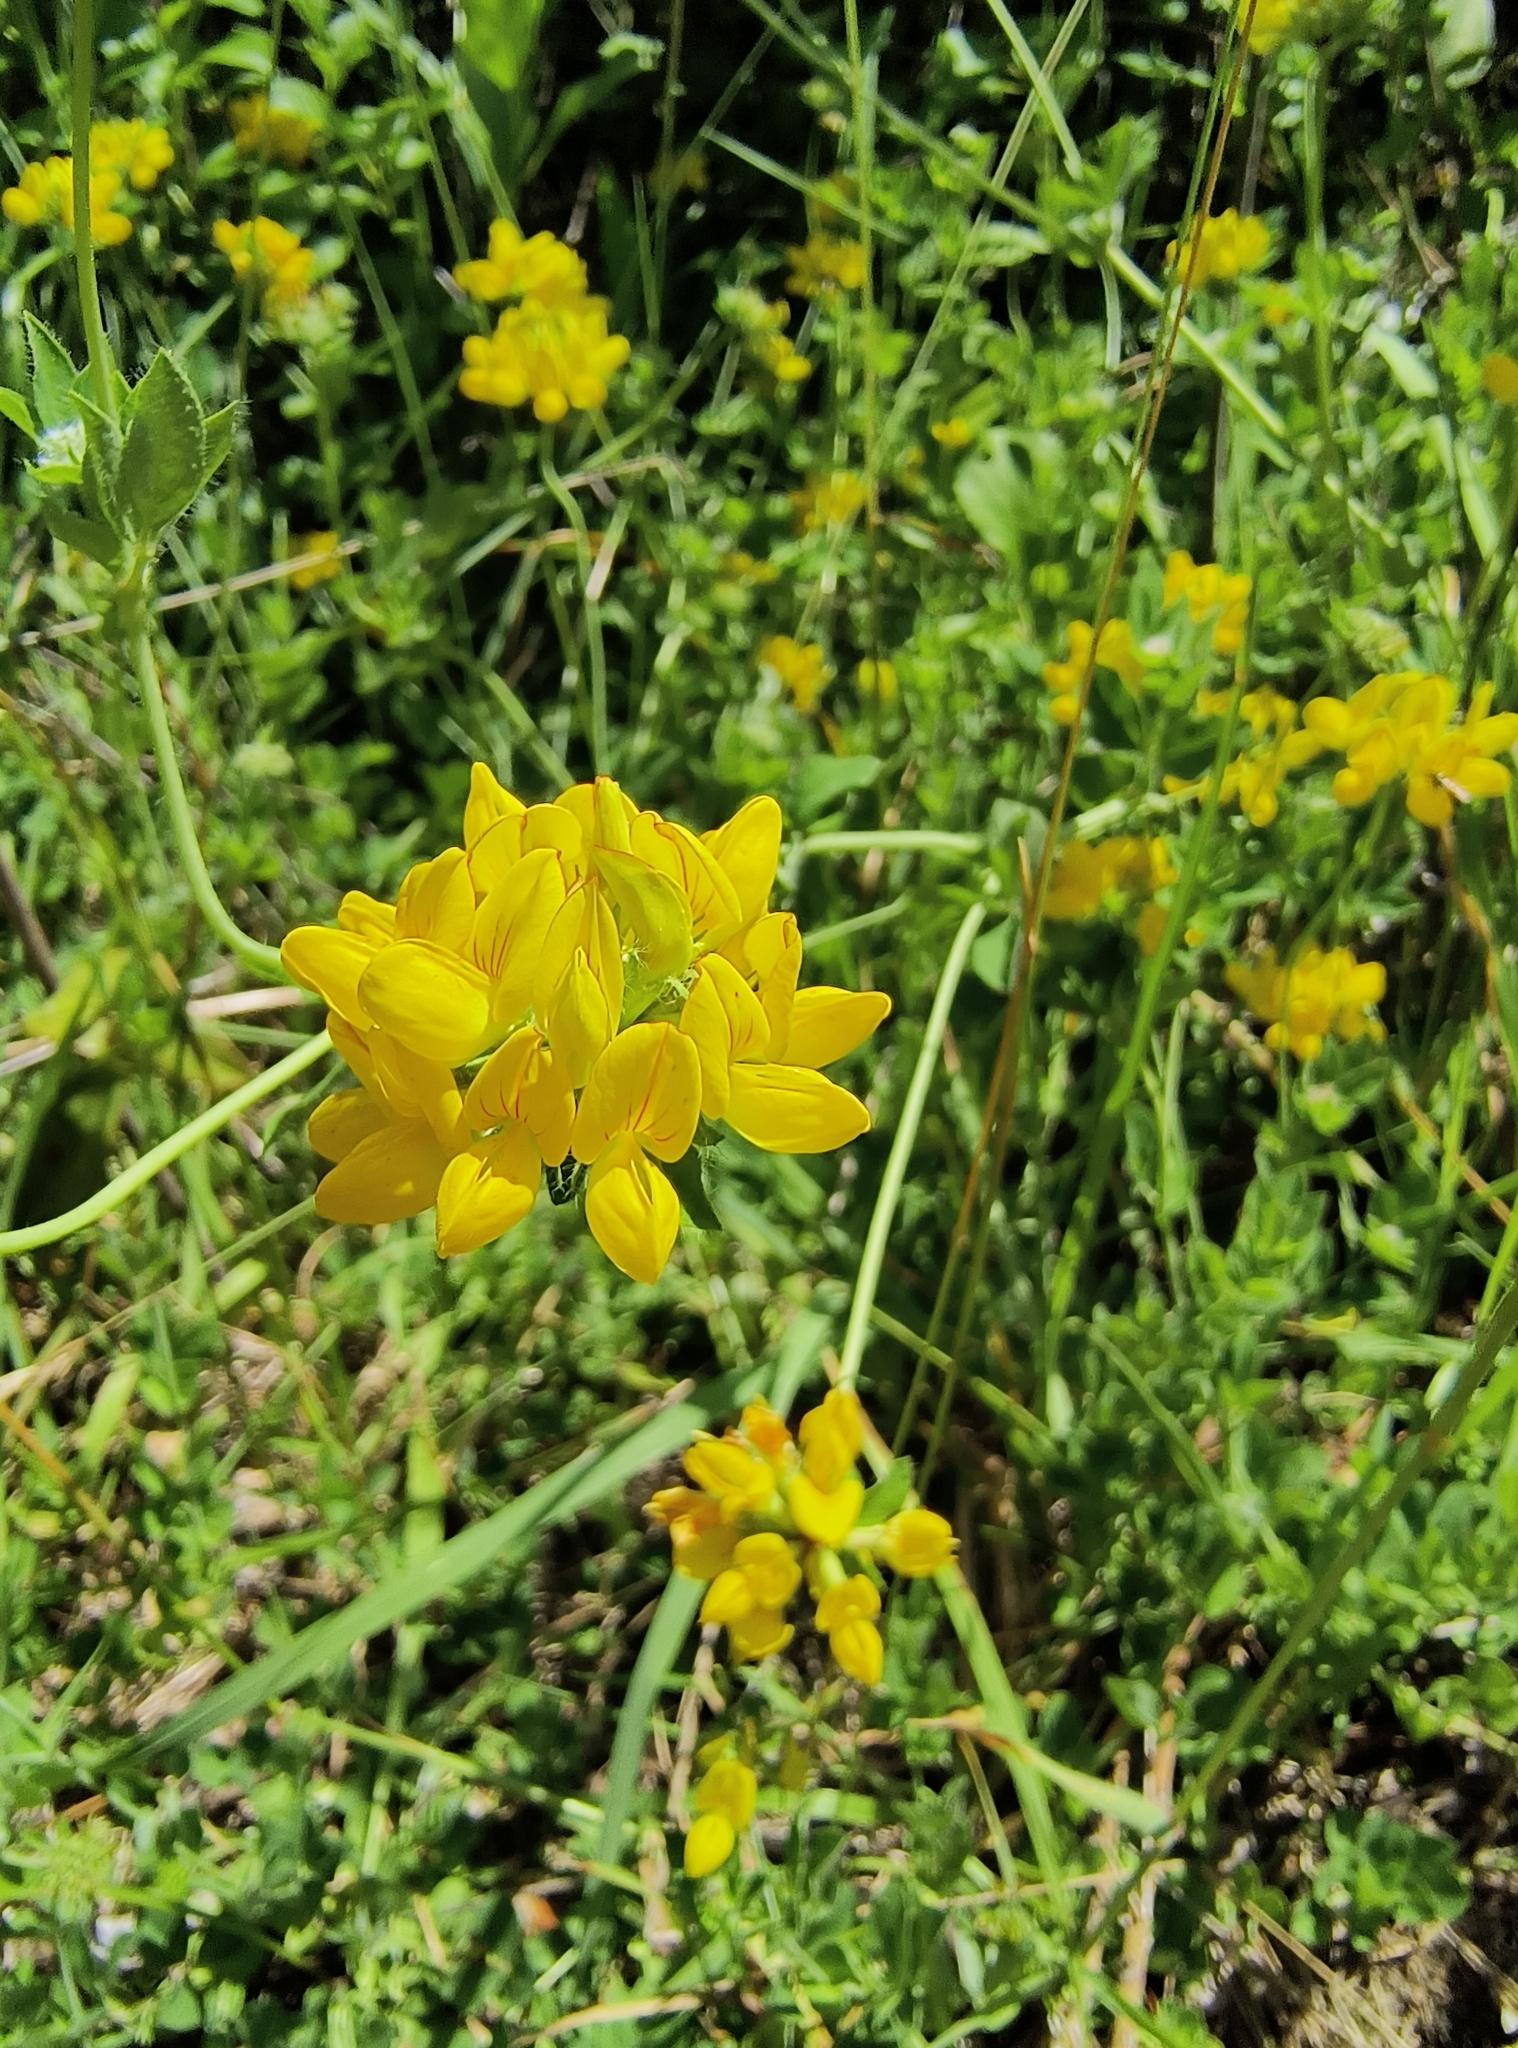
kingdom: Plantae
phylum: Tracheophyta
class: Magnoliopsida
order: Fabales
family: Fabaceae
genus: Lotus
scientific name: Lotus corniculatus
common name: Common bird's-foot-trefoil
